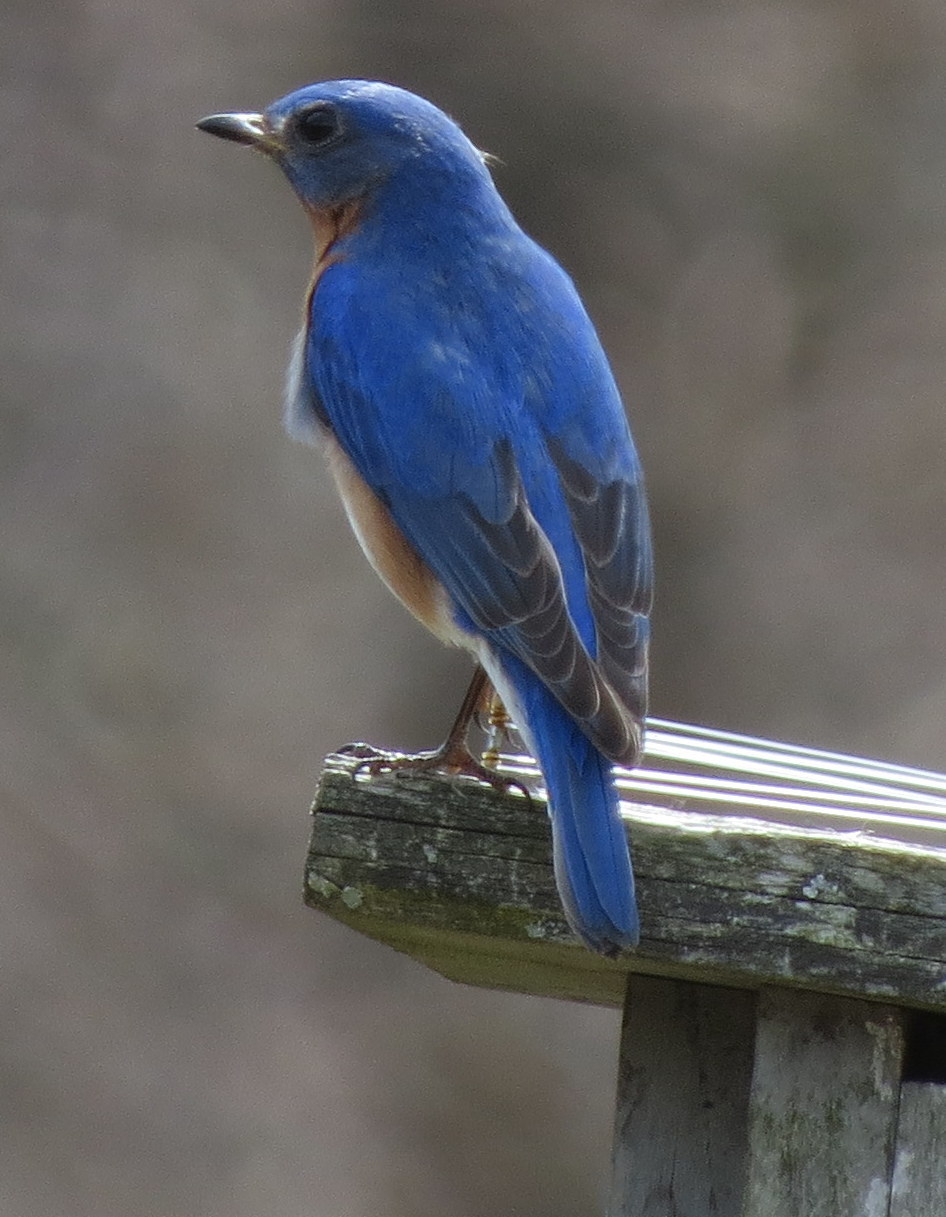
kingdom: Animalia
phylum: Chordata
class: Aves
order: Passeriformes
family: Turdidae
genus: Sialia
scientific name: Sialia sialis
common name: Eastern bluebird
